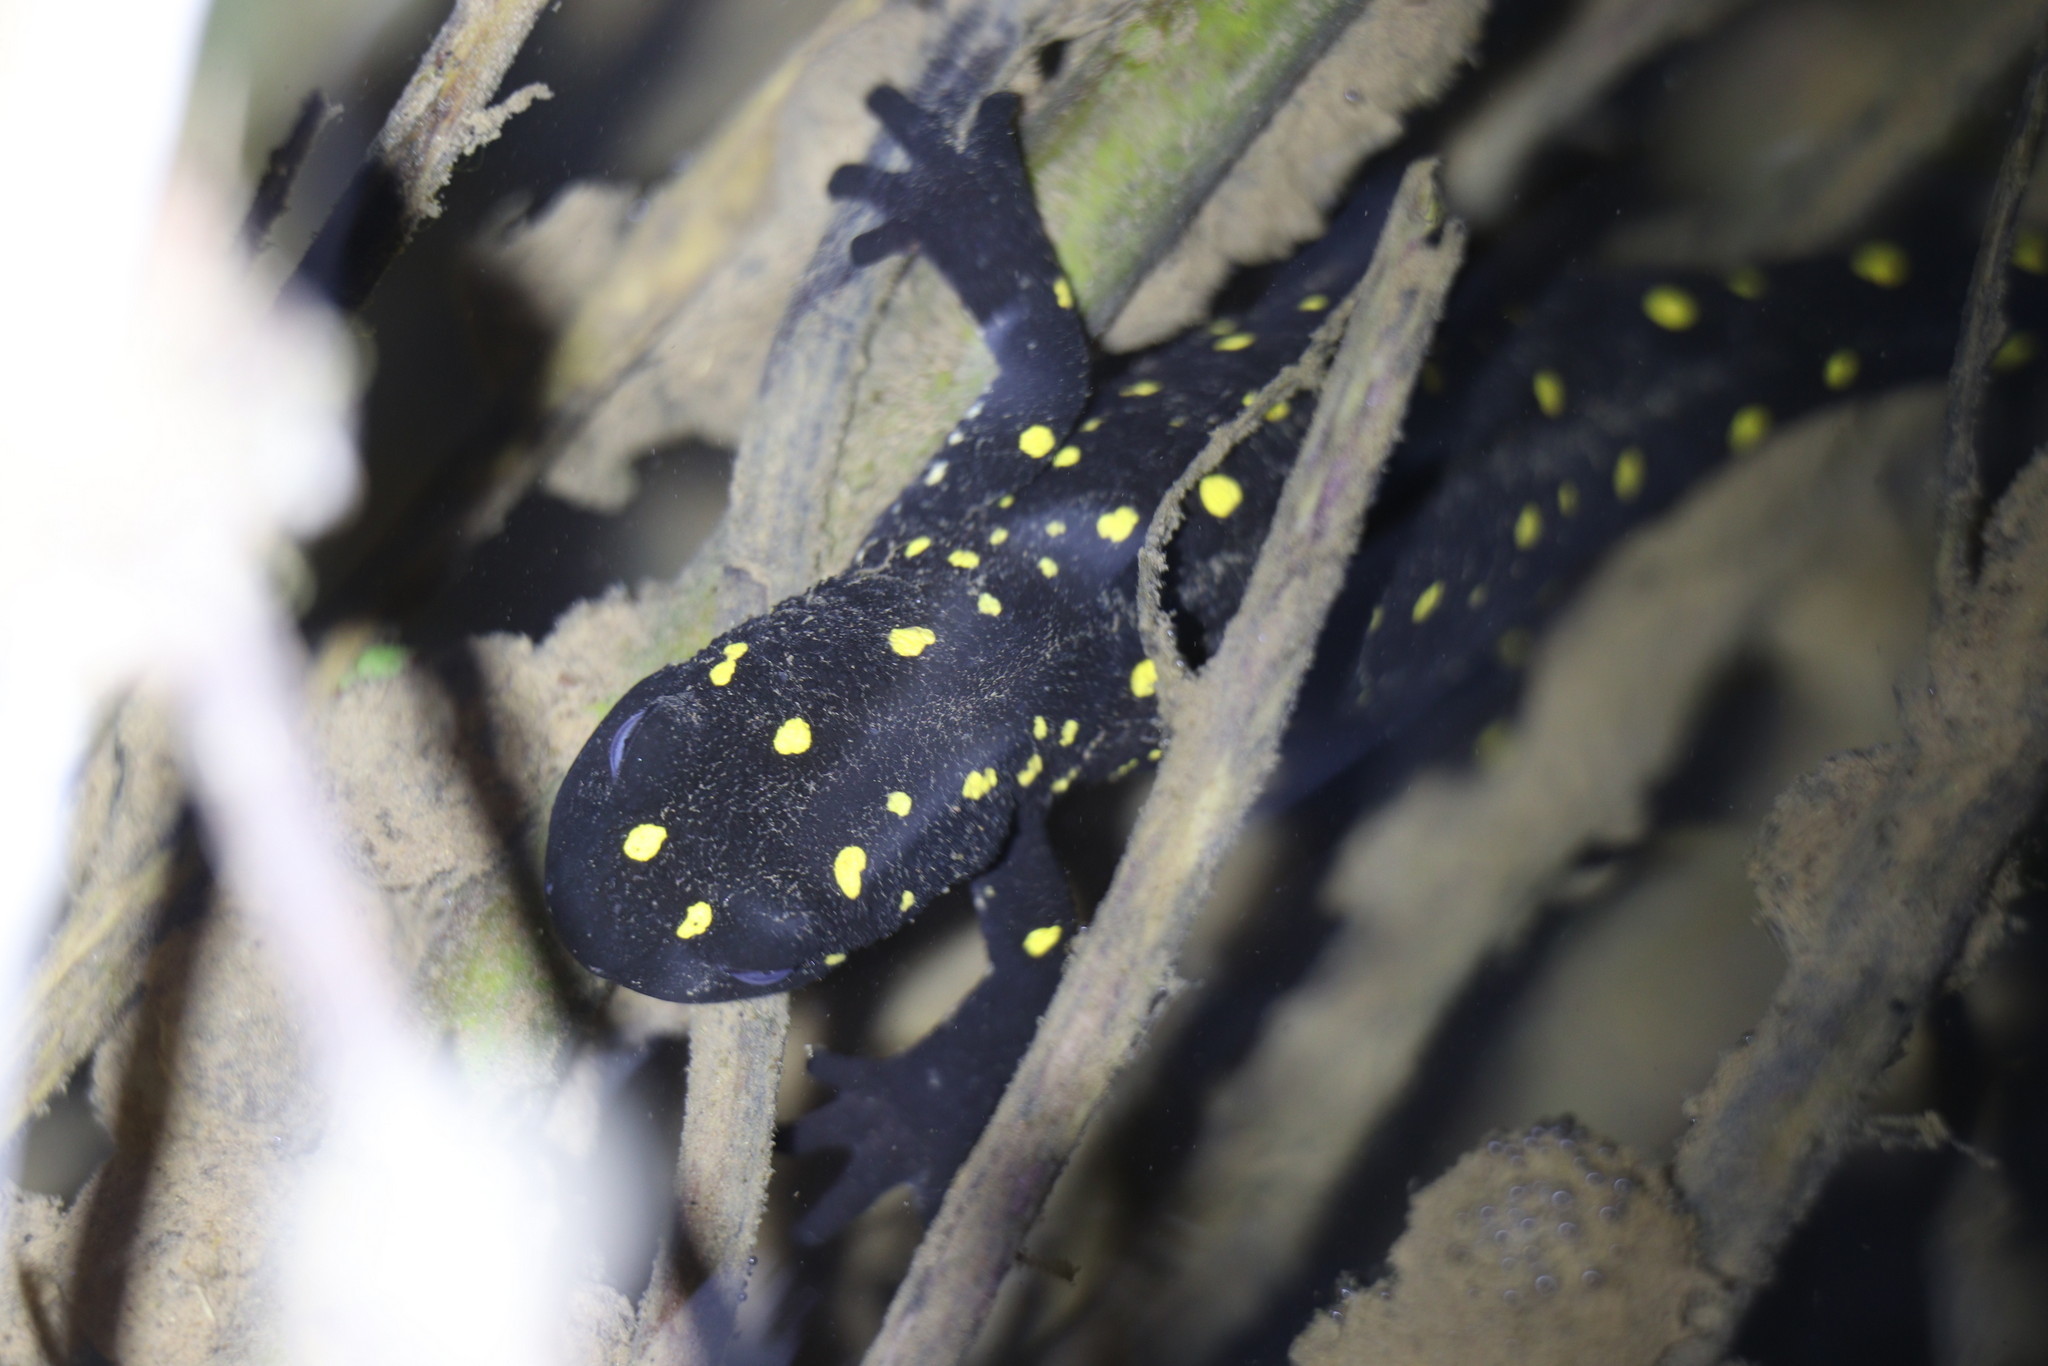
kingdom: Animalia
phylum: Chordata
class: Amphibia
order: Caudata
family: Salamandridae
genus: Neurergus
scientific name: Neurergus barani
